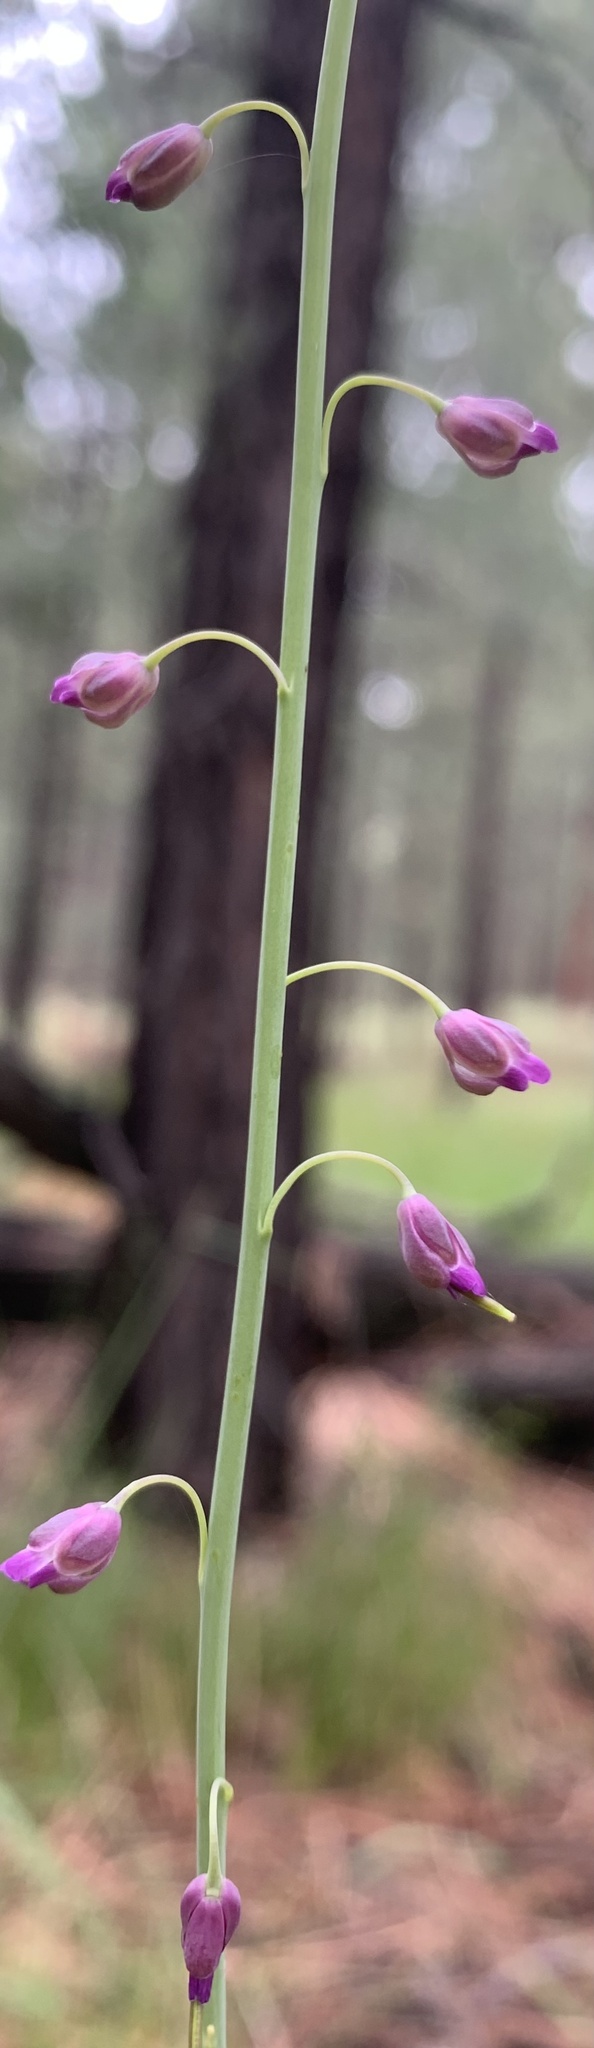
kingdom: Plantae
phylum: Tracheophyta
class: Magnoliopsida
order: Brassicales
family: Brassicaceae
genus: Pennellia
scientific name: Pennellia longifolia
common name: Longleaf mock thelypody
